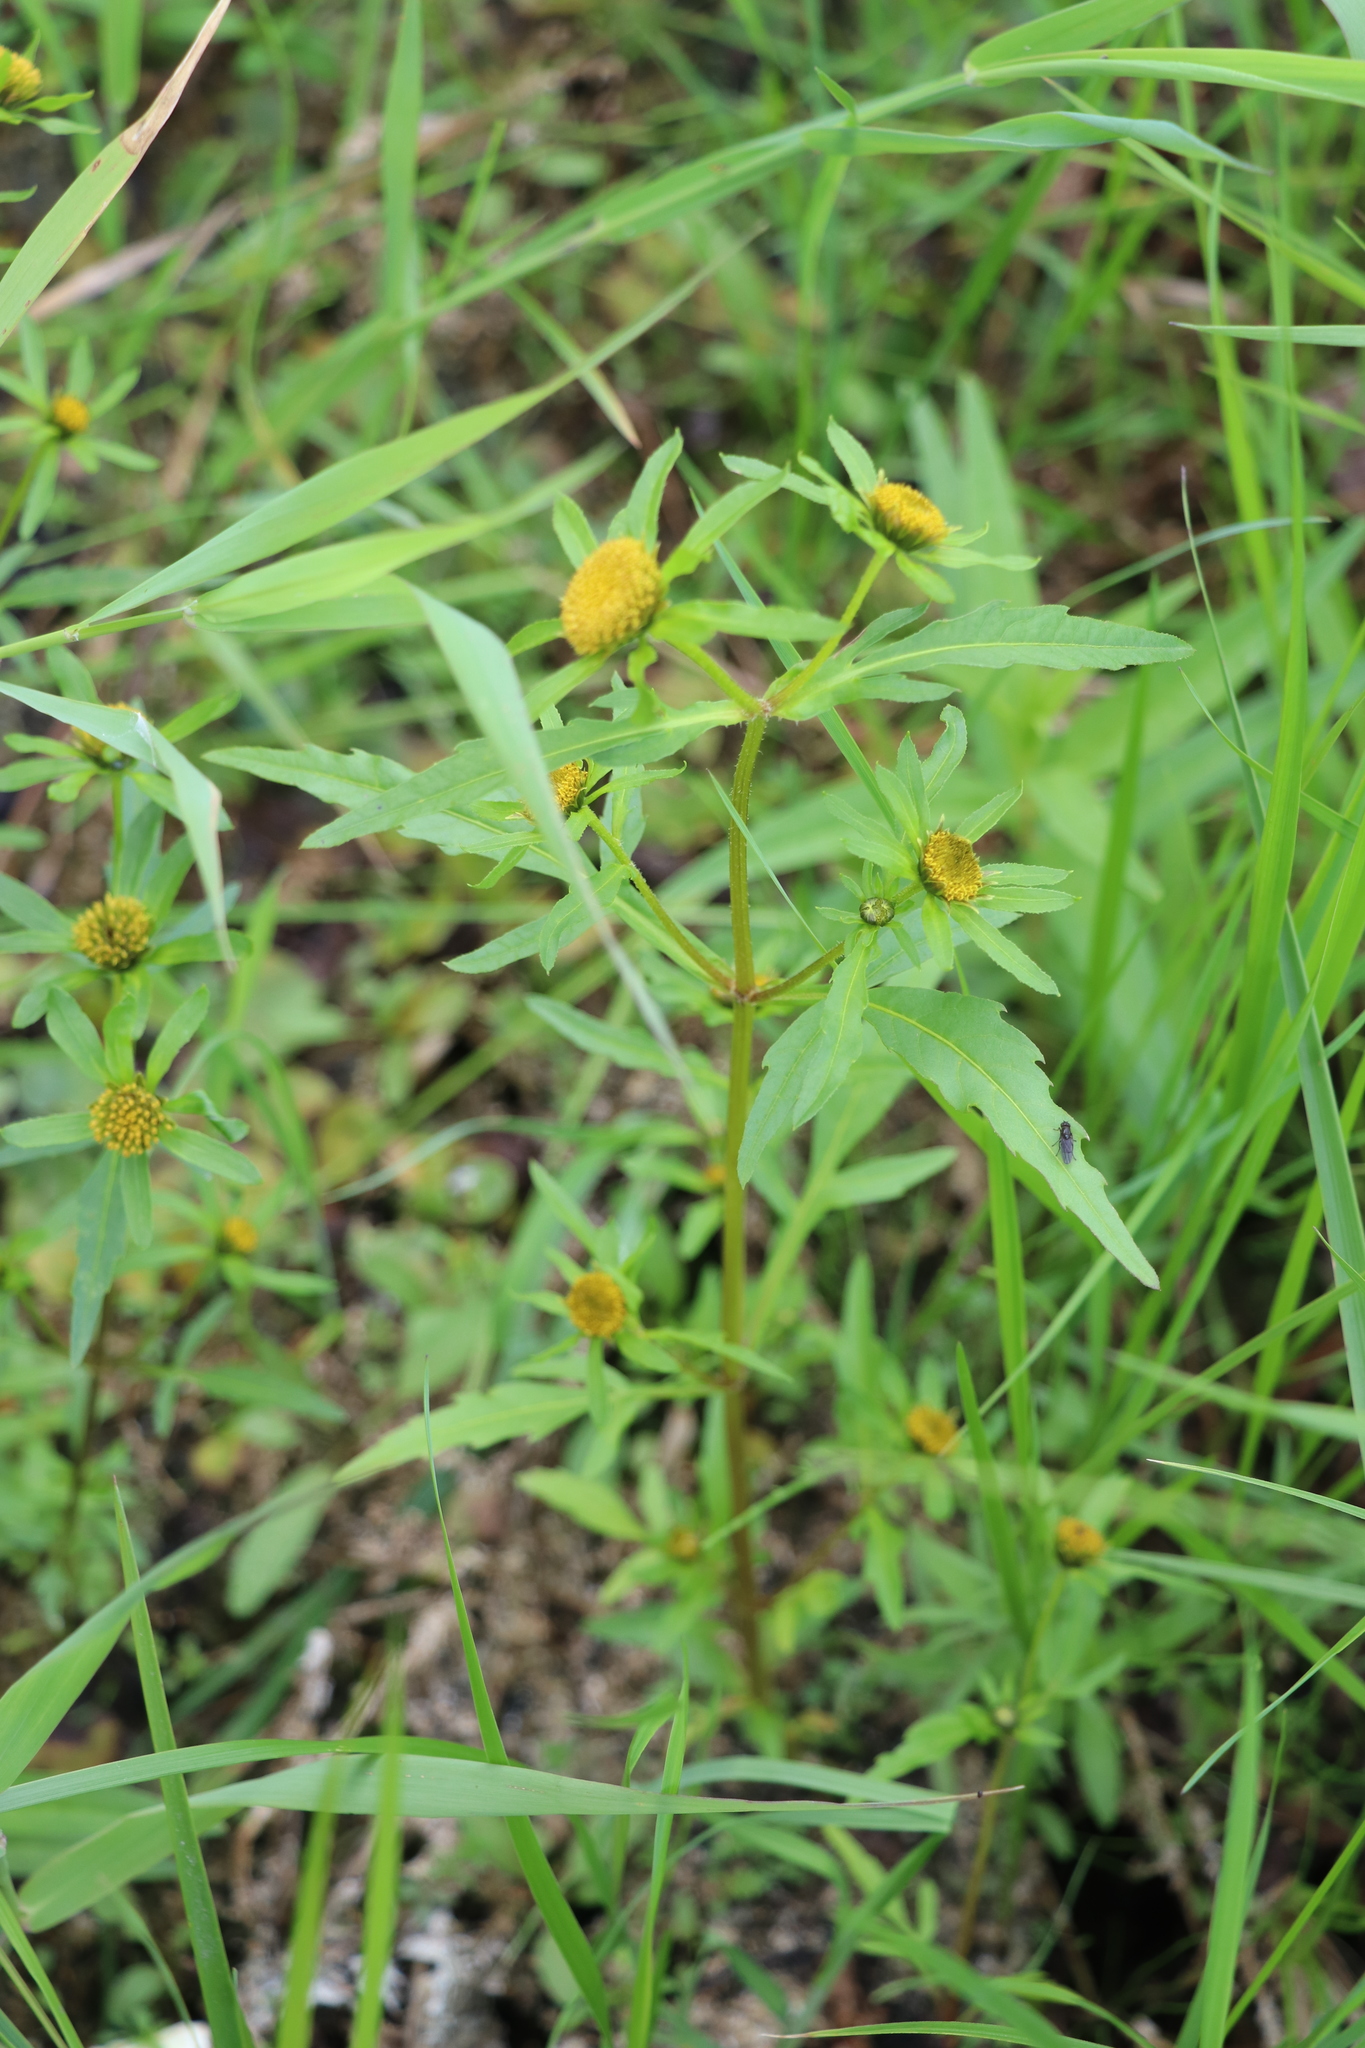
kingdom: Plantae
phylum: Tracheophyta
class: Magnoliopsida
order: Asterales
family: Asteraceae
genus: Bidens
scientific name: Bidens radiata
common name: Radiating bur-marigold
